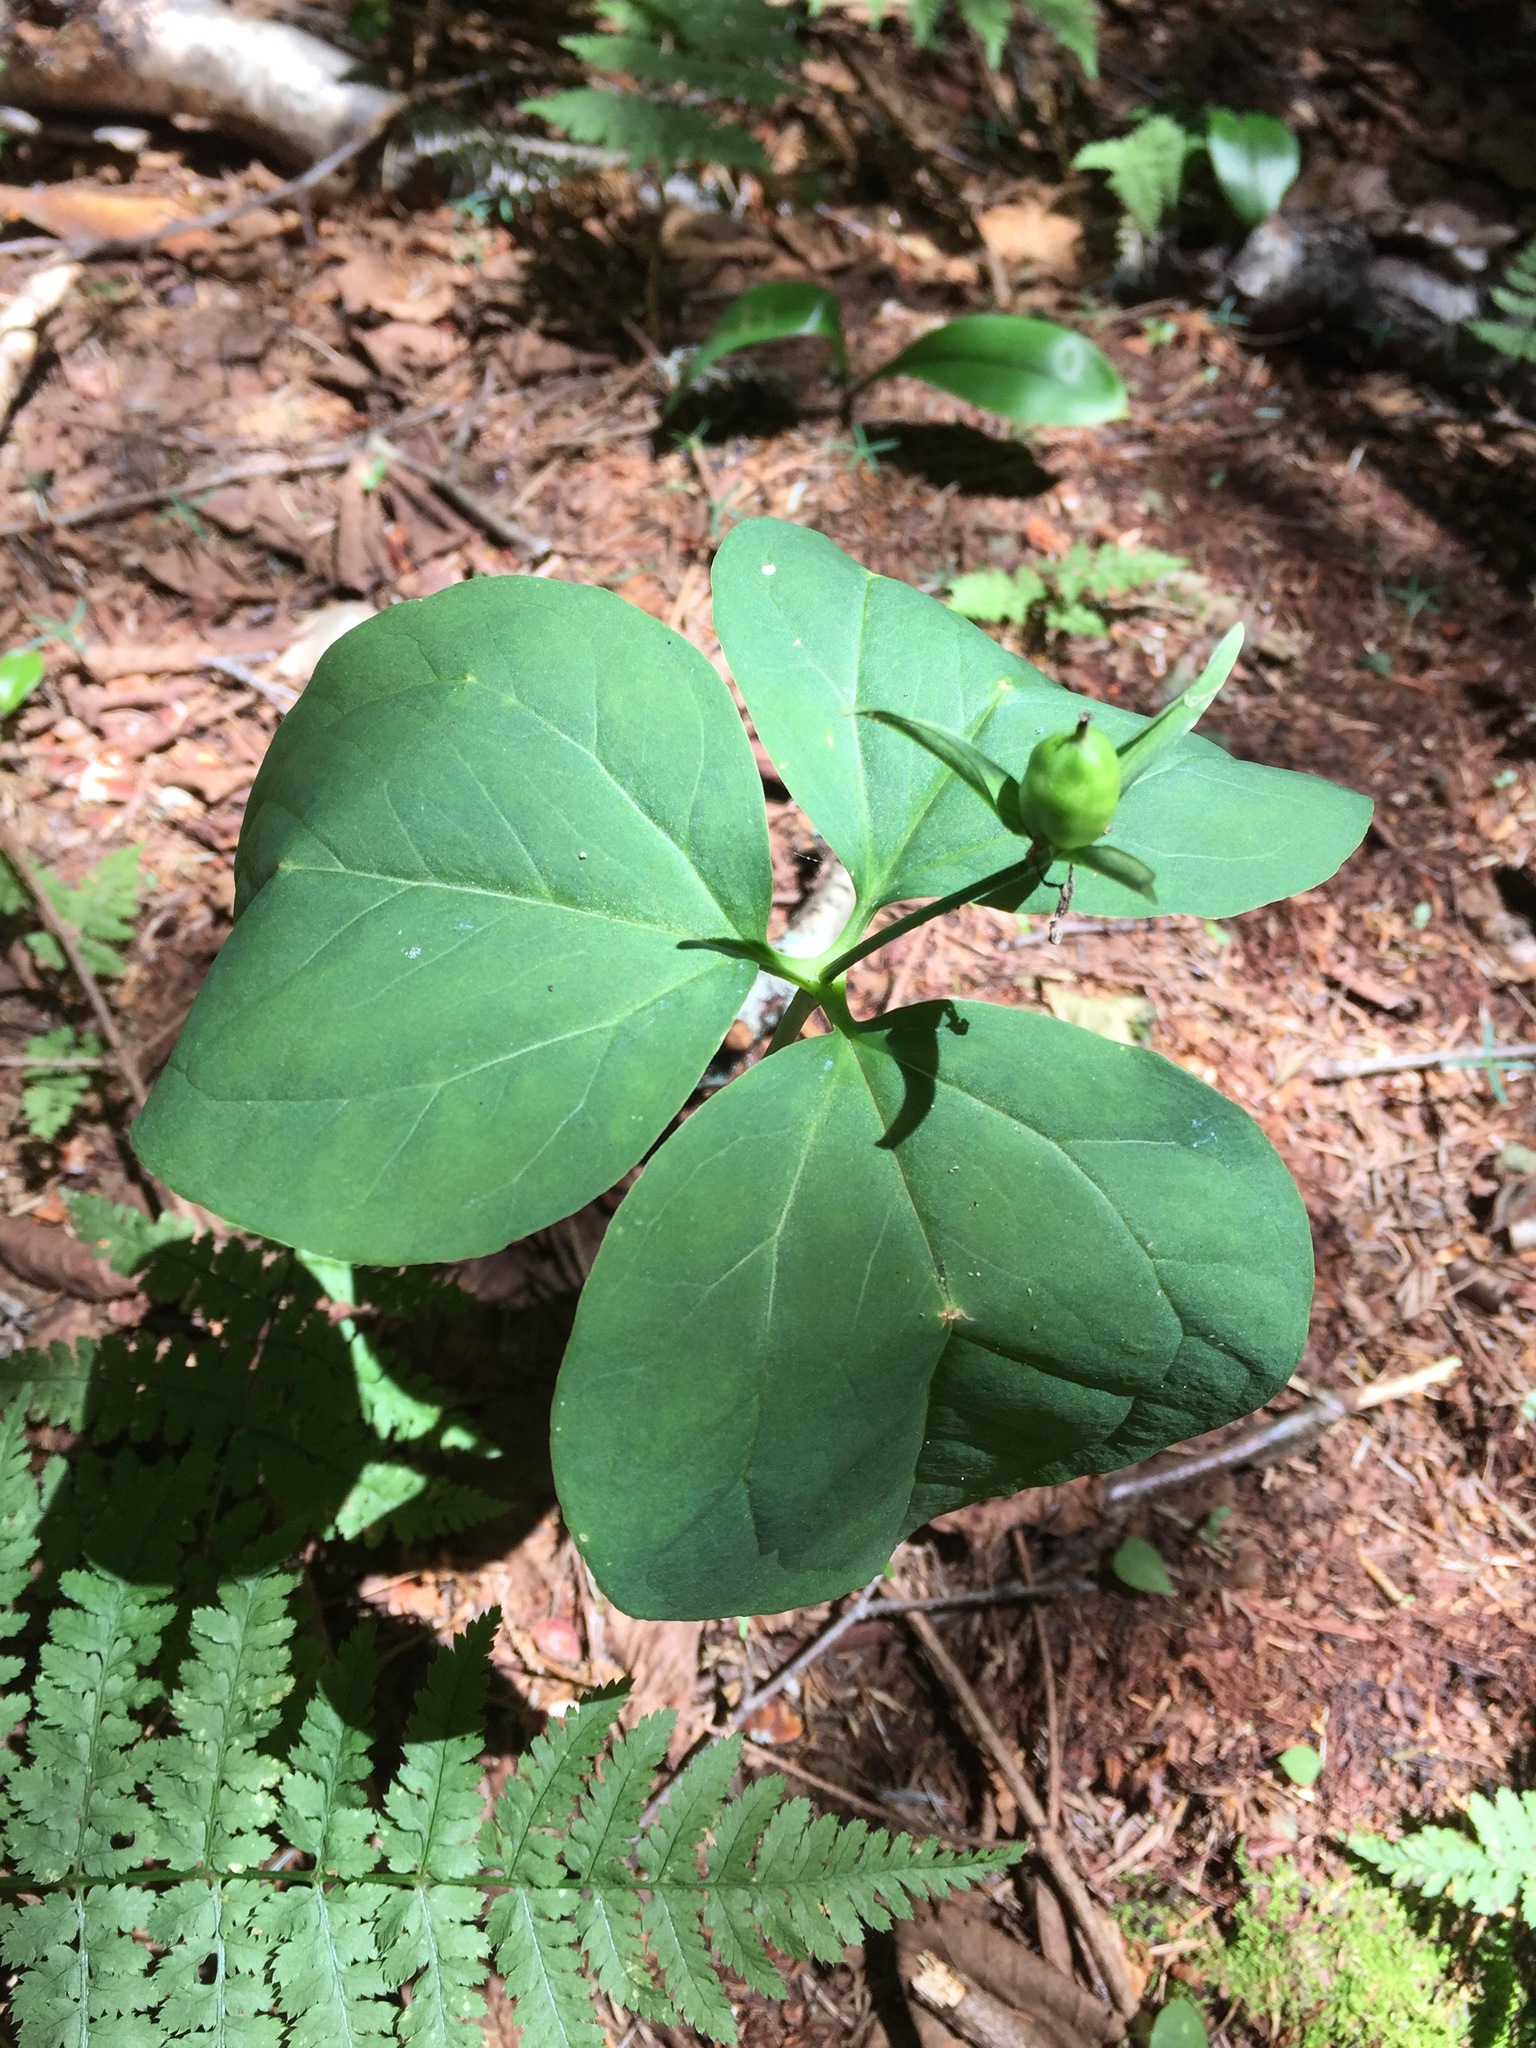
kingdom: Plantae
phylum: Tracheophyta
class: Liliopsida
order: Liliales
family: Melanthiaceae
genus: Trillium
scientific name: Trillium undulatum
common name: Paint trillium
